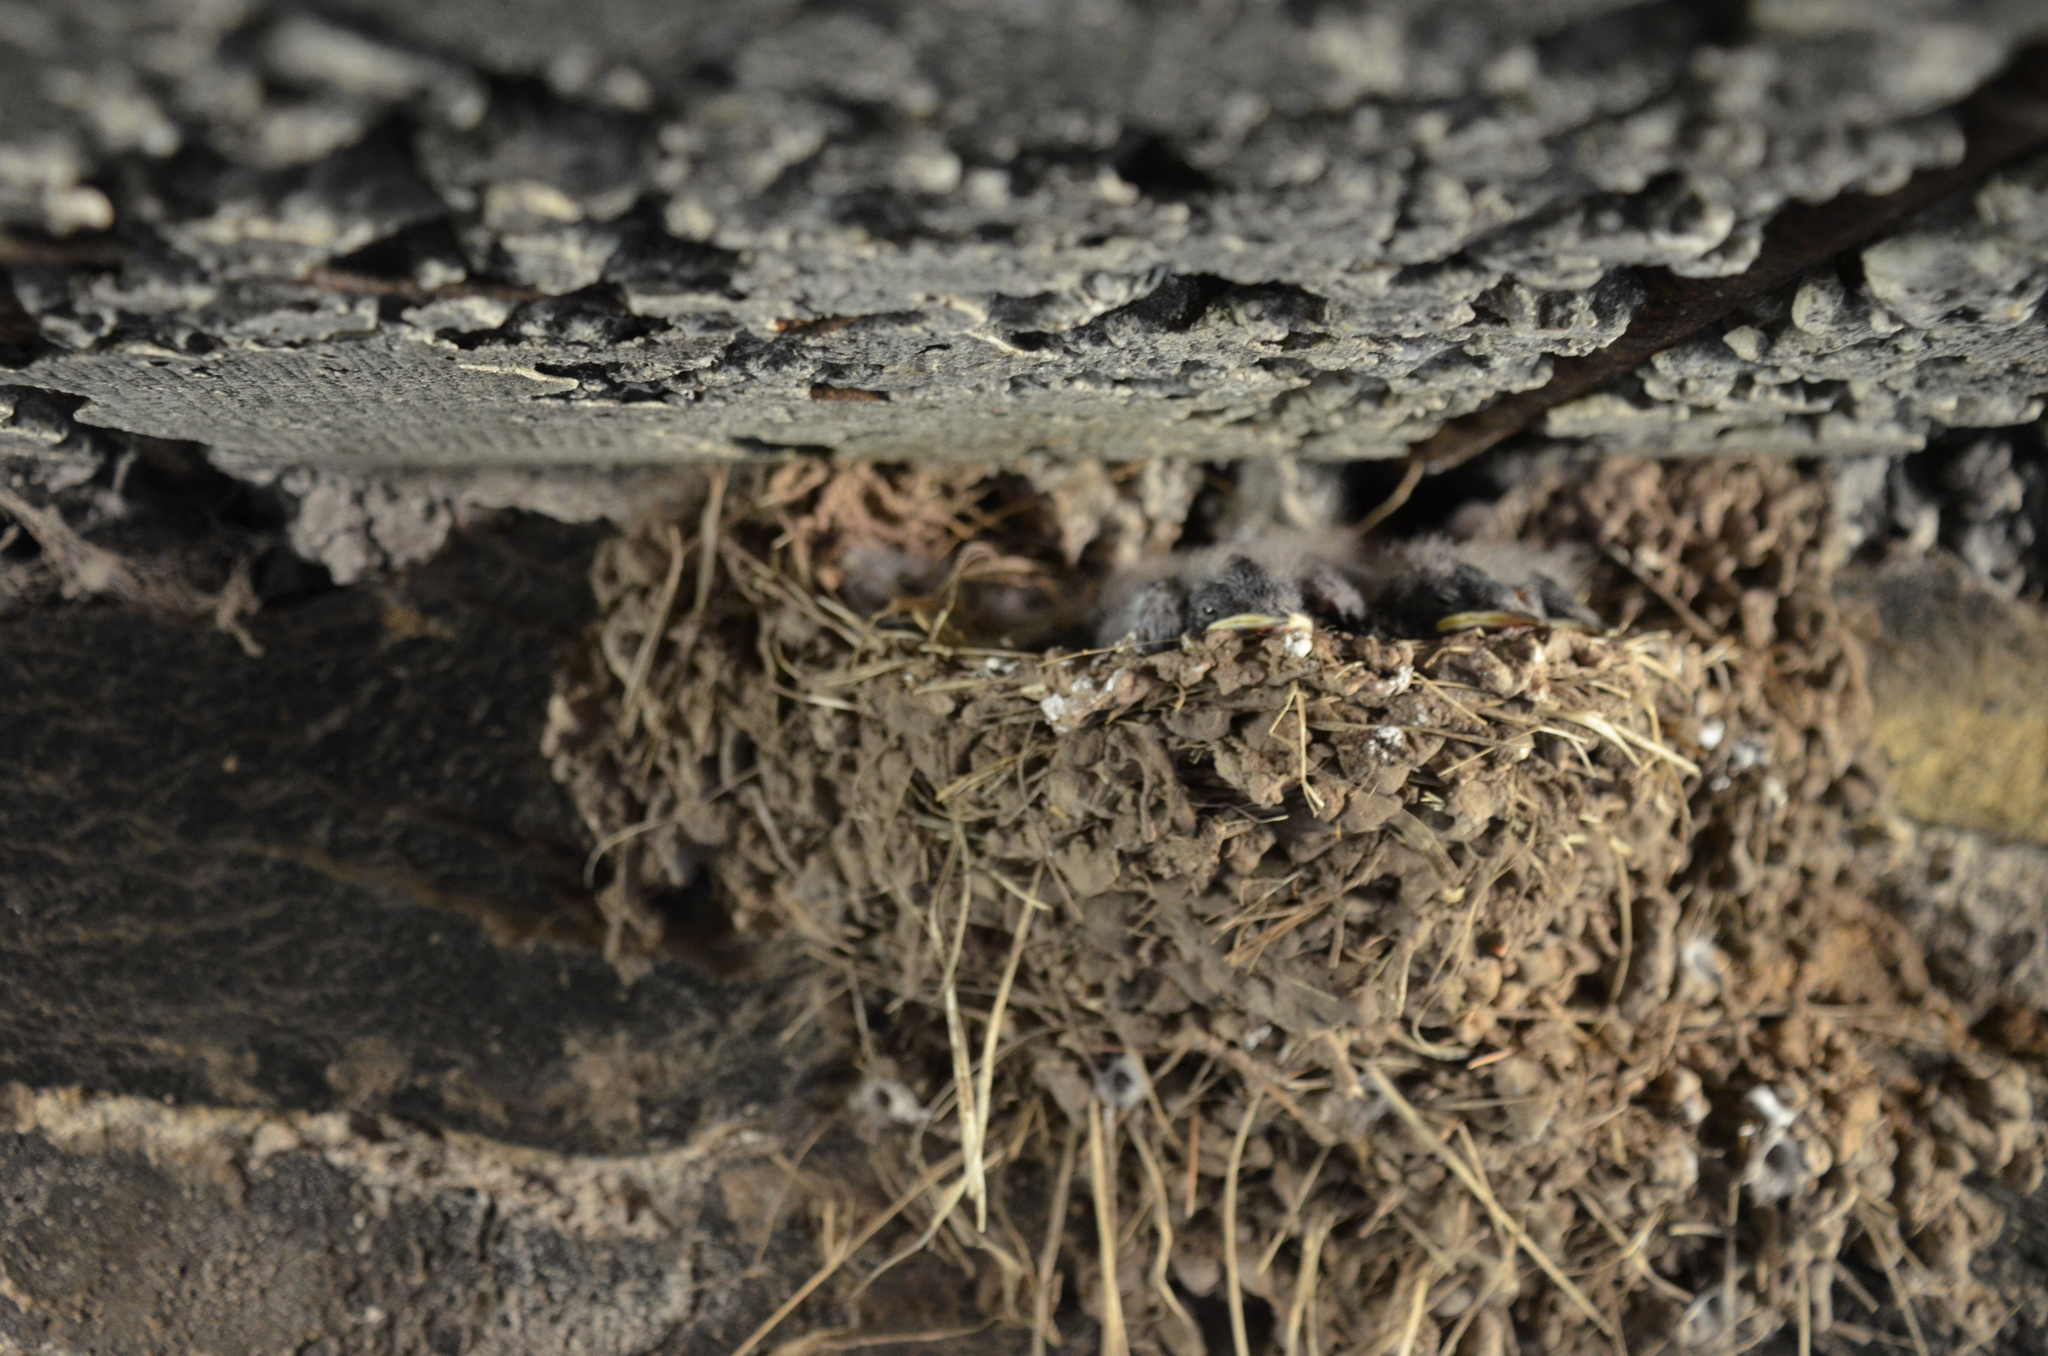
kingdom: Animalia
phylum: Chordata
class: Aves
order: Passeriformes
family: Hirundinidae
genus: Hirundo
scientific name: Hirundo rustica
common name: Barn swallow
